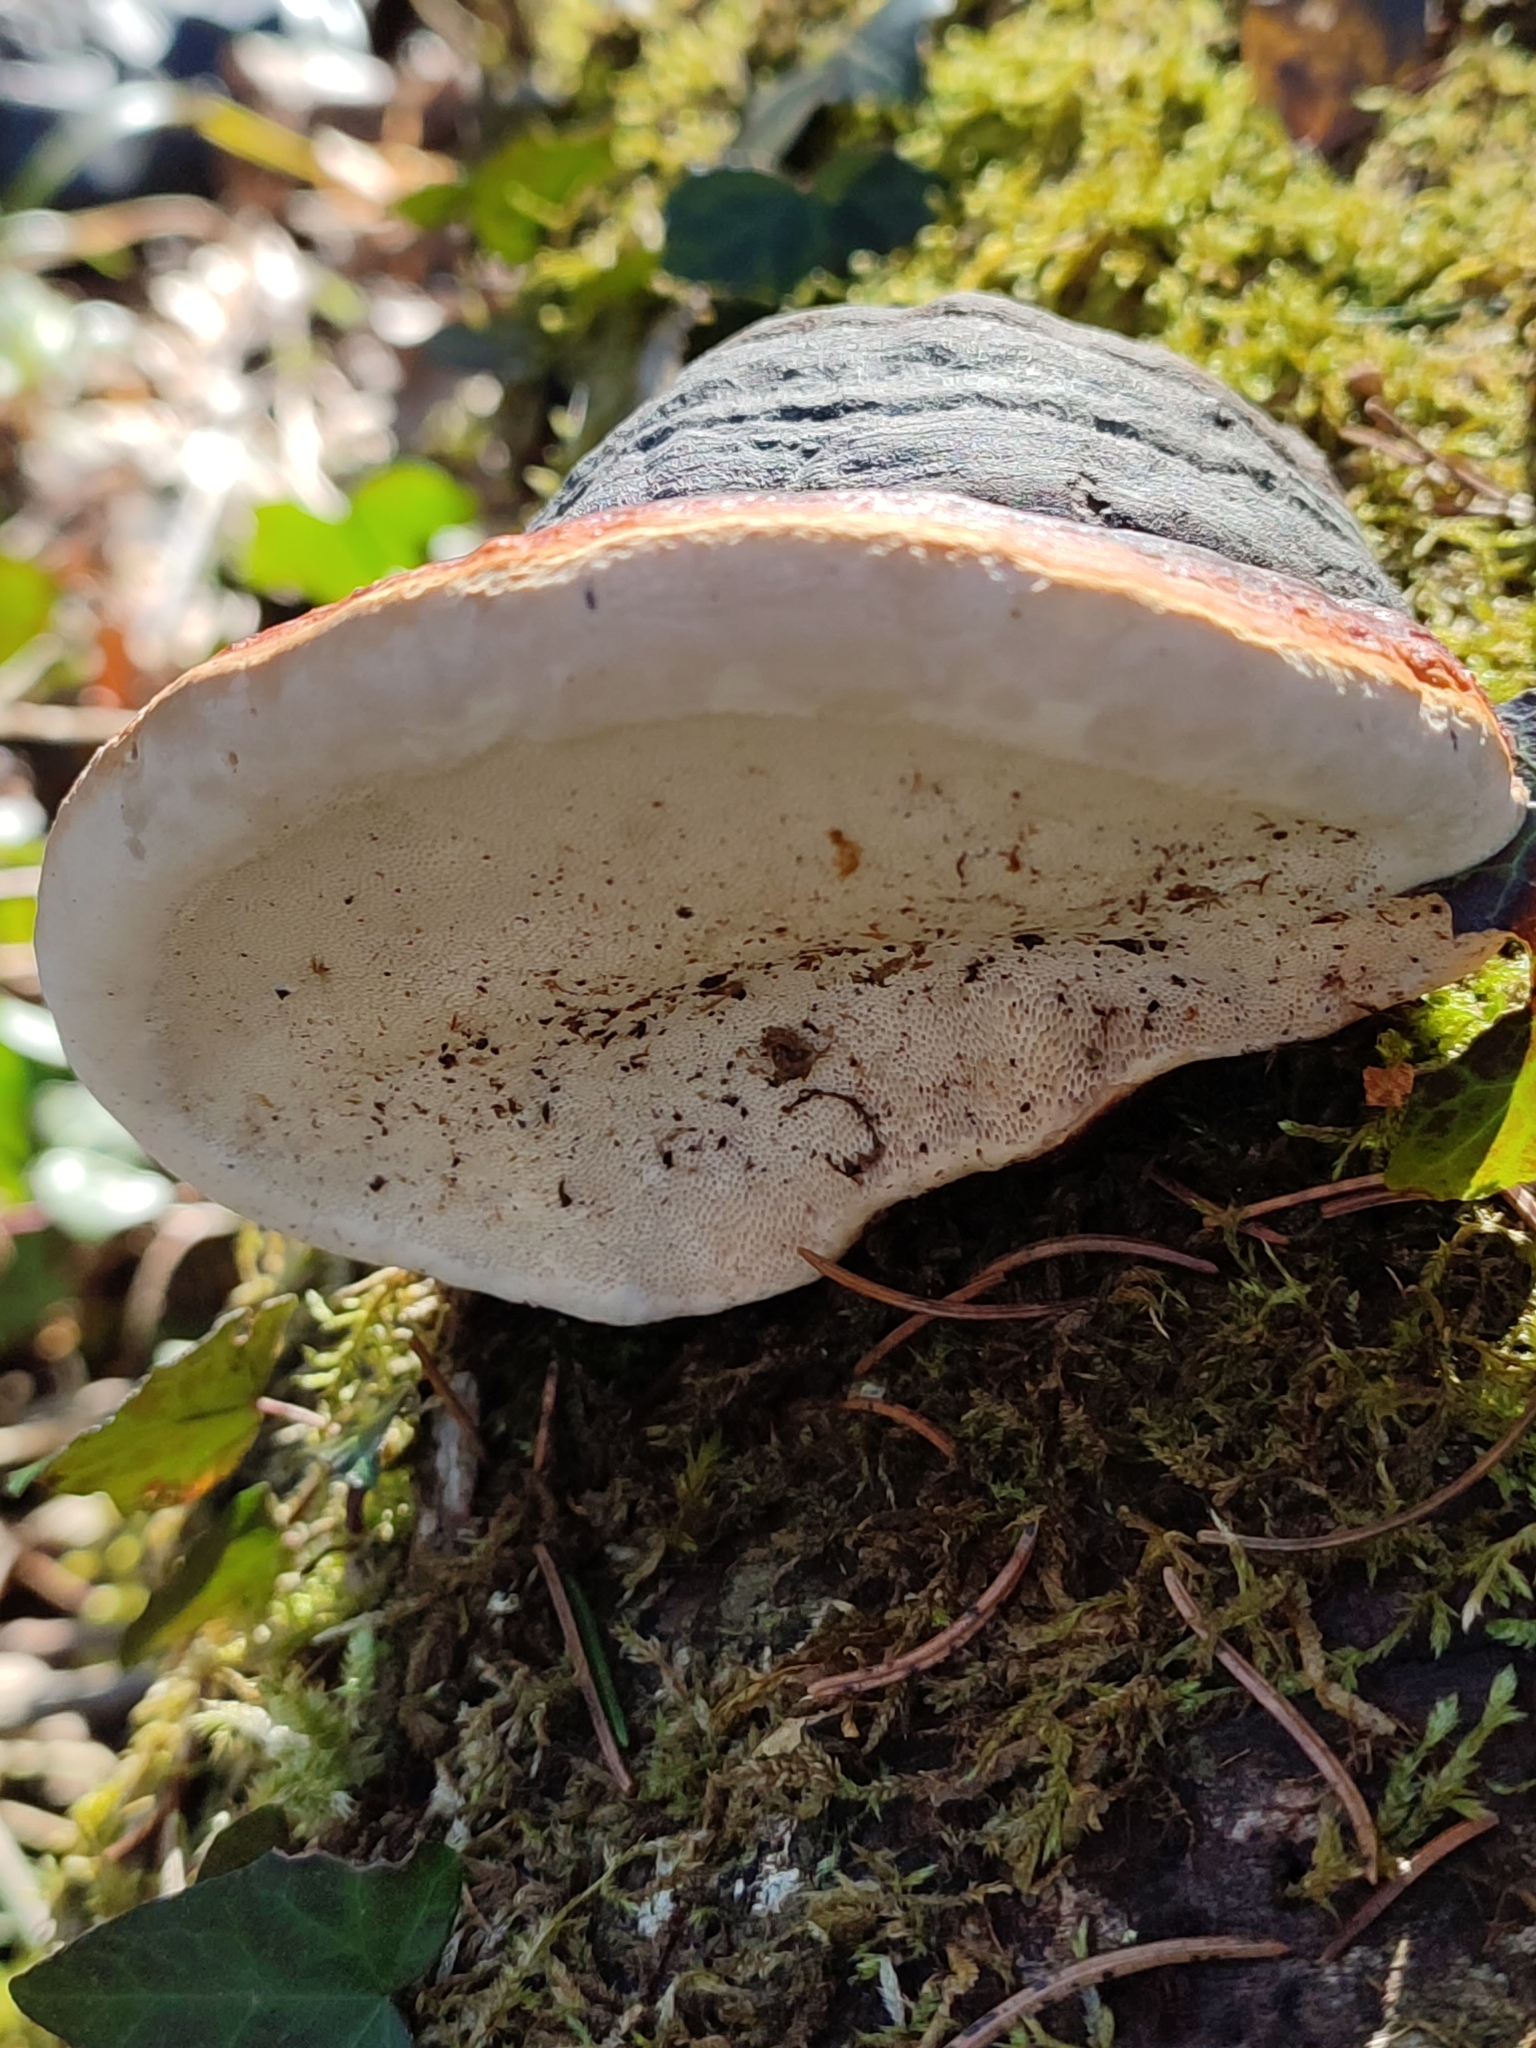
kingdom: Fungi
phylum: Basidiomycota
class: Agaricomycetes
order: Polyporales
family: Fomitopsidaceae
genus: Fomitopsis
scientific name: Fomitopsis pinicola
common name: Red-belted bracket
